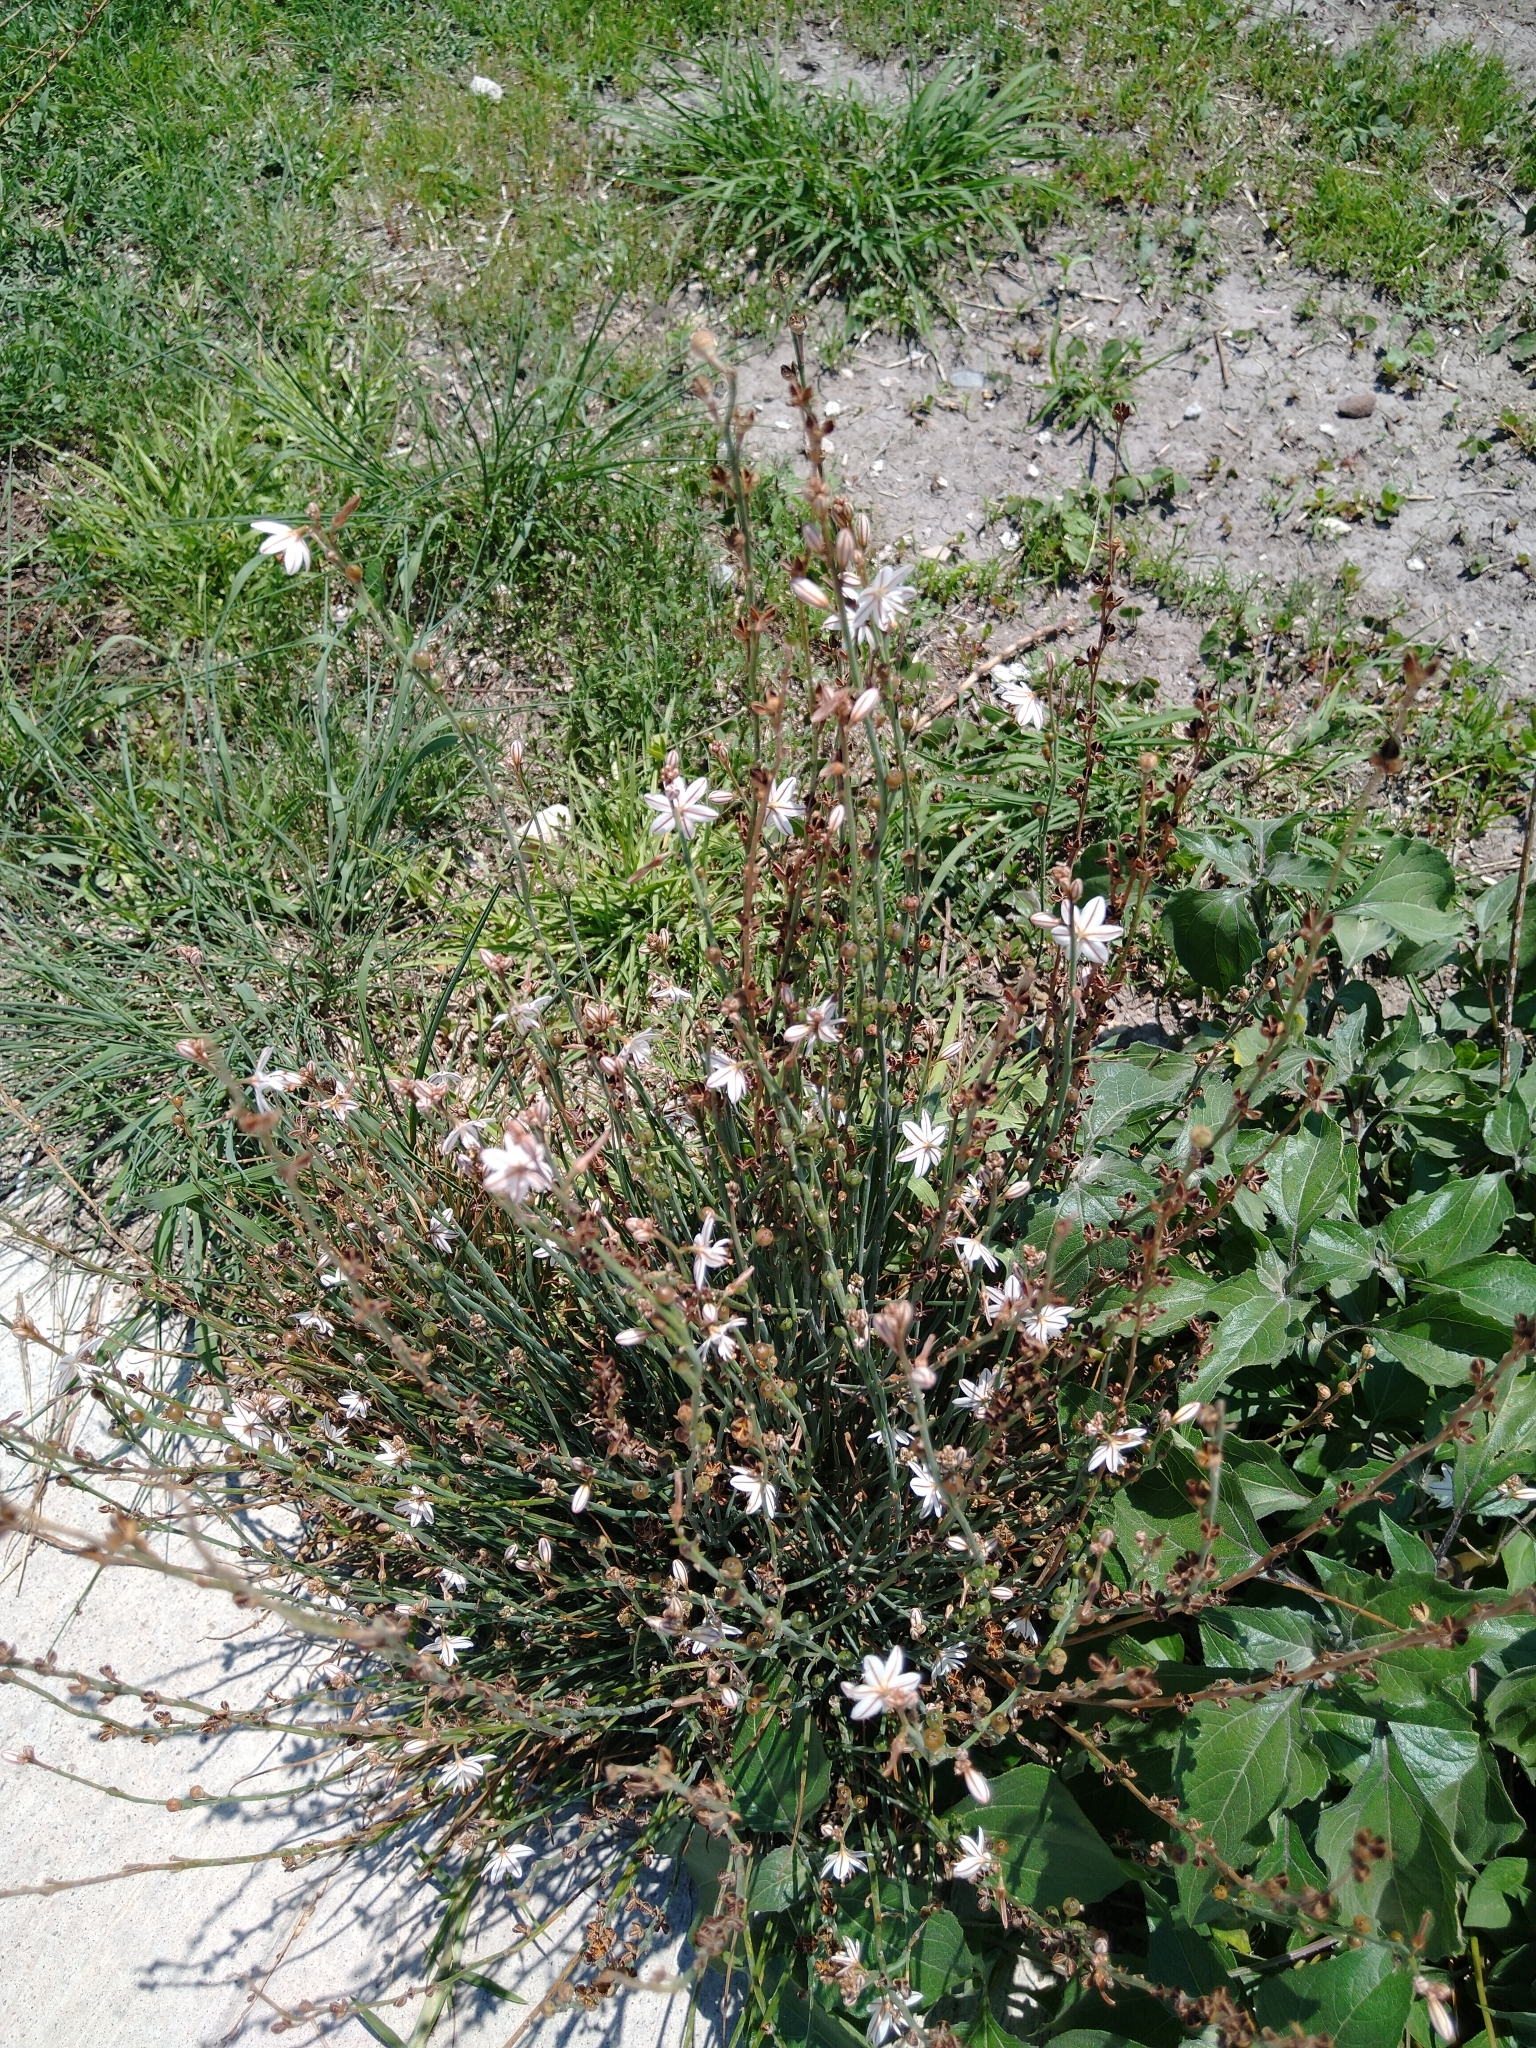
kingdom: Plantae
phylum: Tracheophyta
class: Liliopsida
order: Asparagales
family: Asphodelaceae
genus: Asphodelus
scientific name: Asphodelus fistulosus
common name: Onionweed
